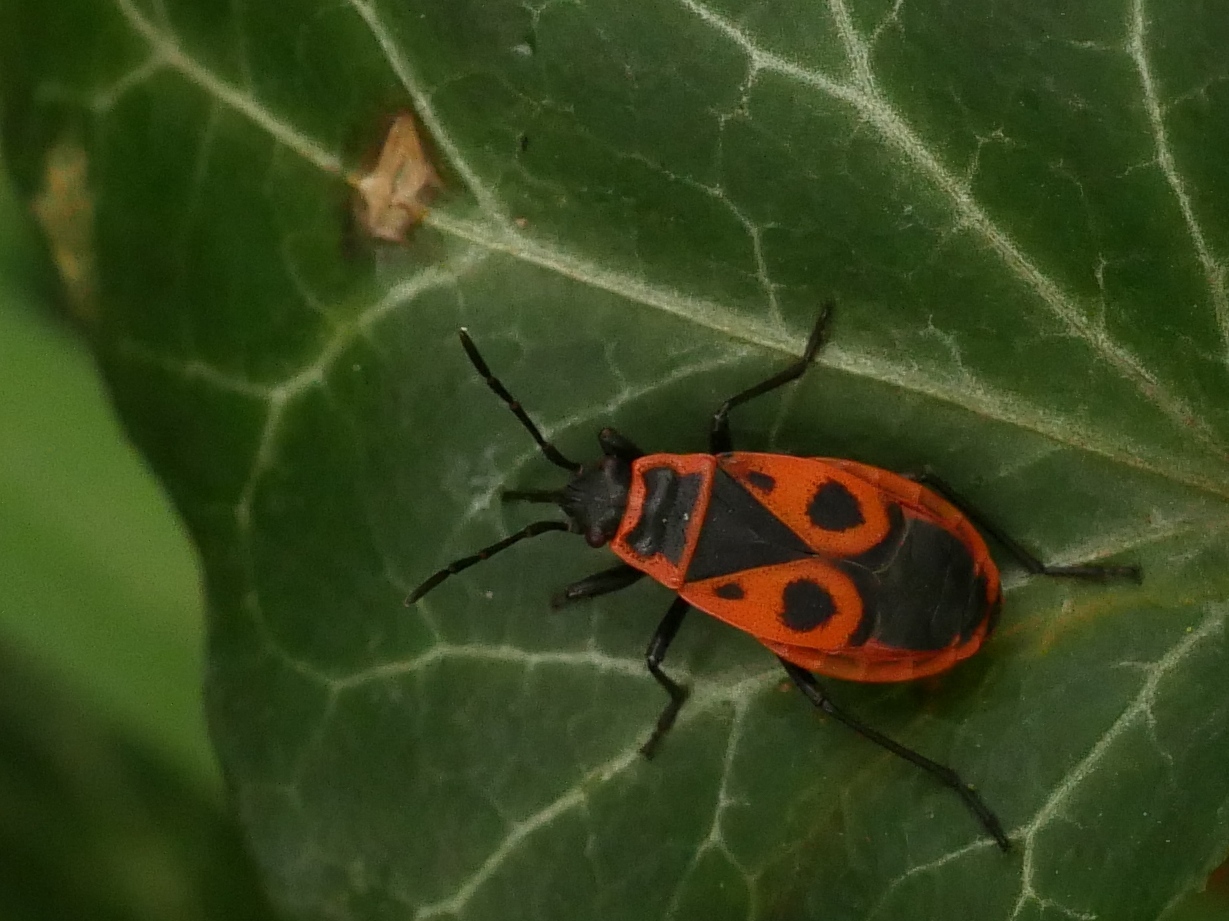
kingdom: Animalia
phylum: Arthropoda
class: Insecta
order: Hemiptera
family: Pyrrhocoridae
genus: Pyrrhocoris
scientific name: Pyrrhocoris apterus
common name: Firebug
